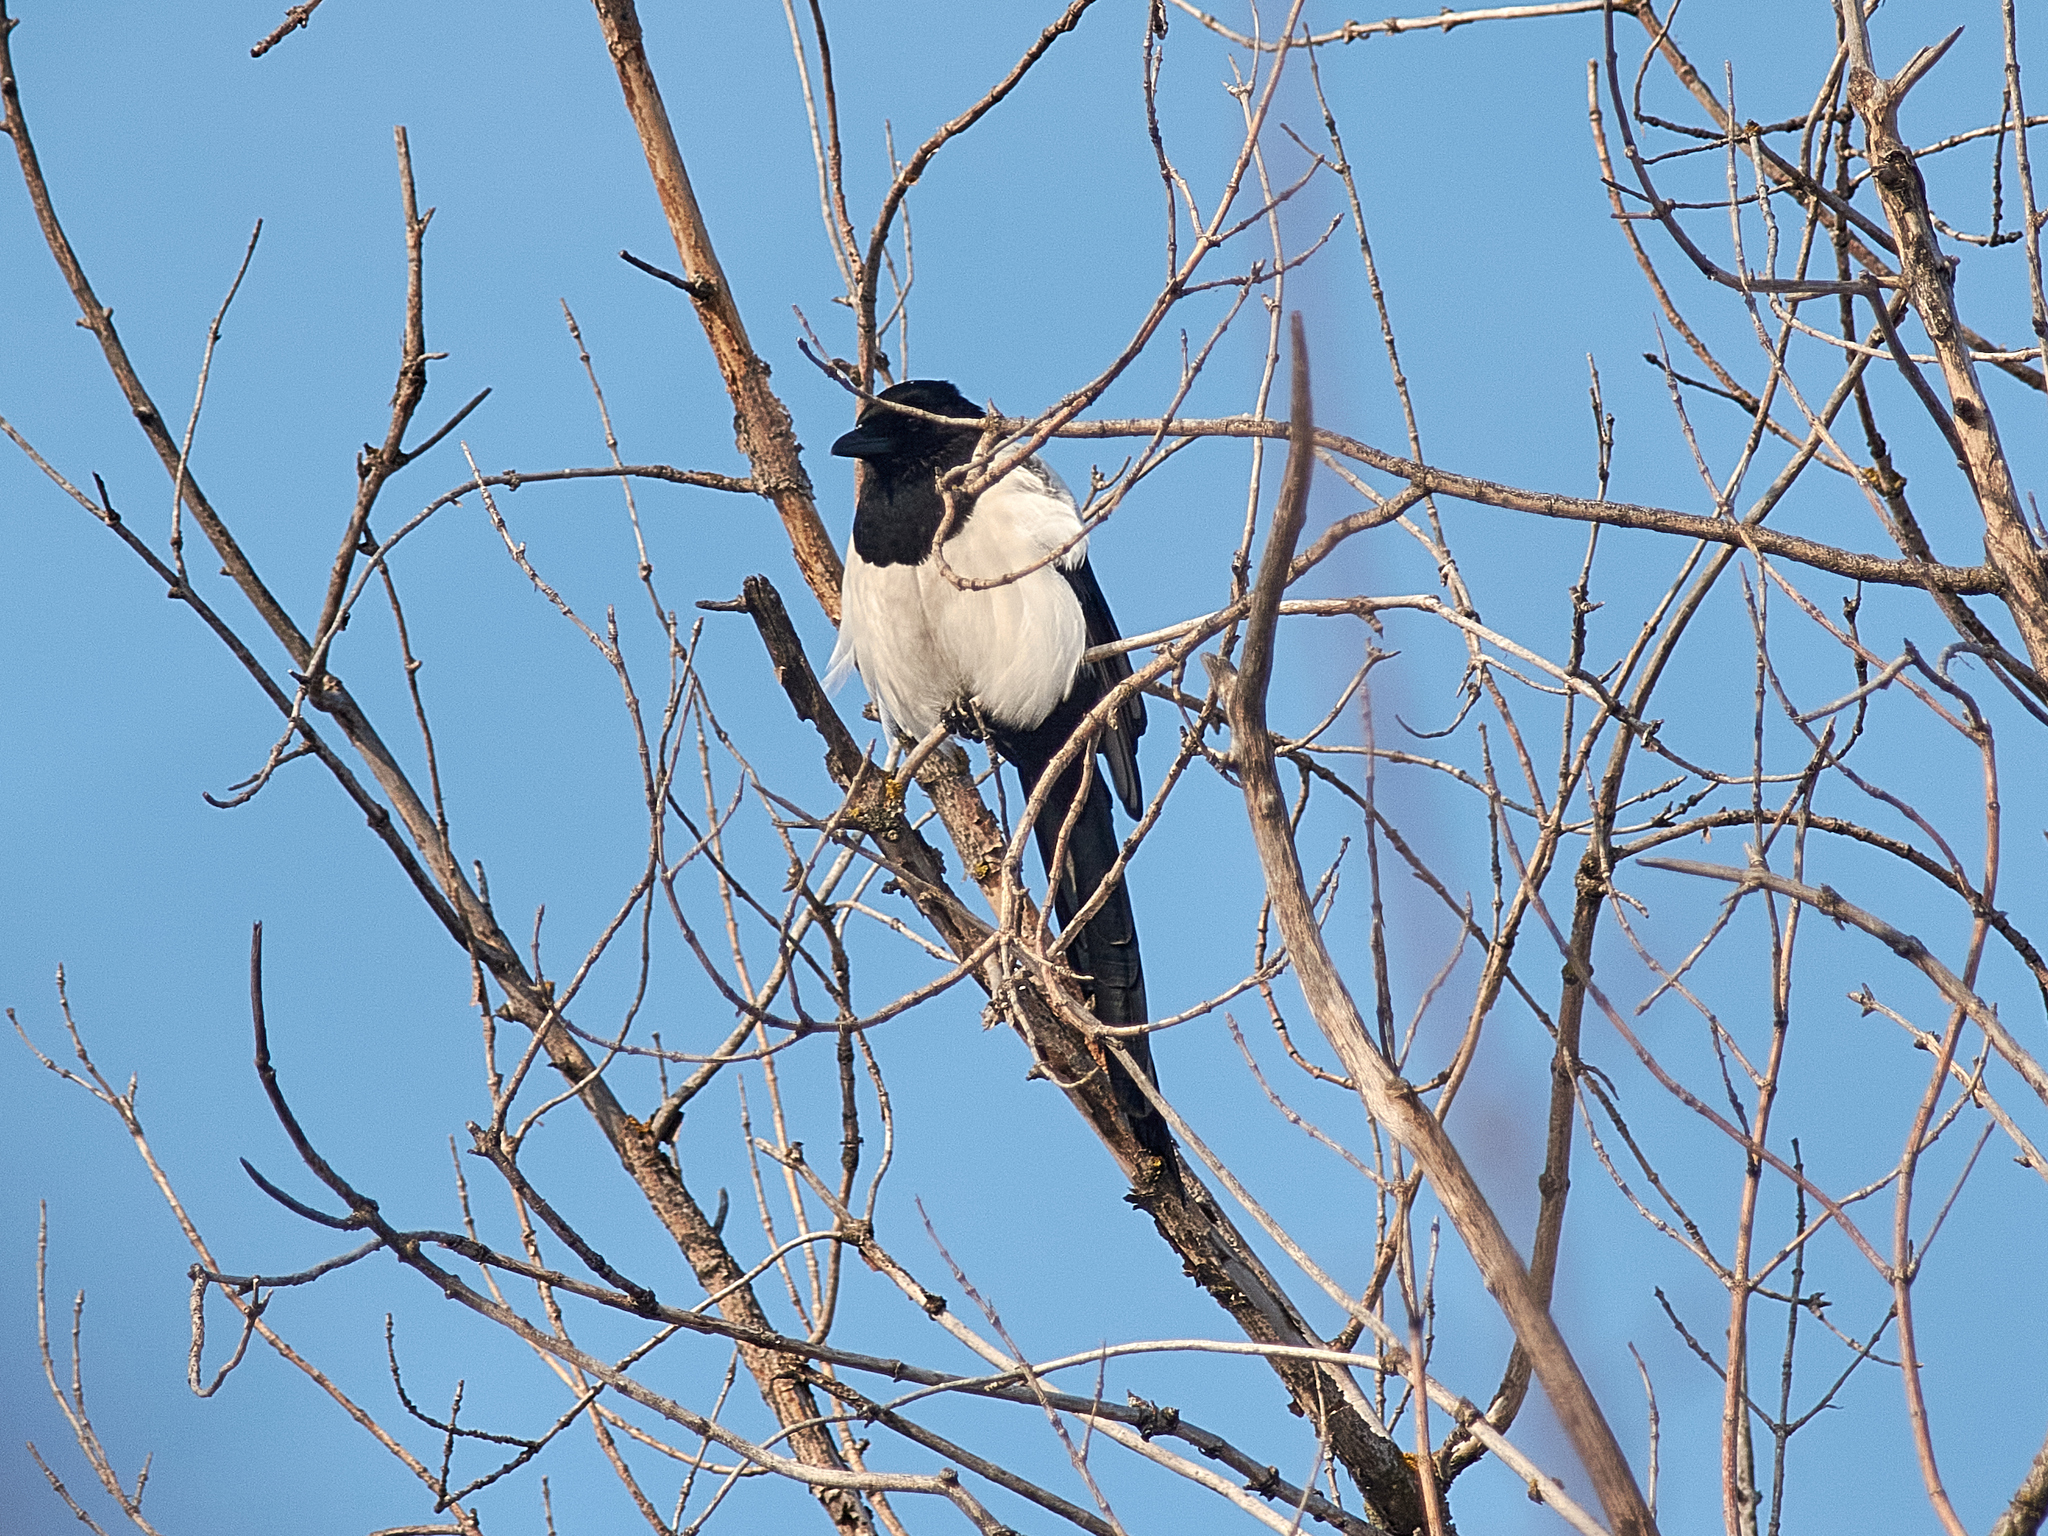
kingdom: Animalia
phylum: Chordata
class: Aves
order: Passeriformes
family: Corvidae
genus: Pica
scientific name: Pica pica
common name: Eurasian magpie
